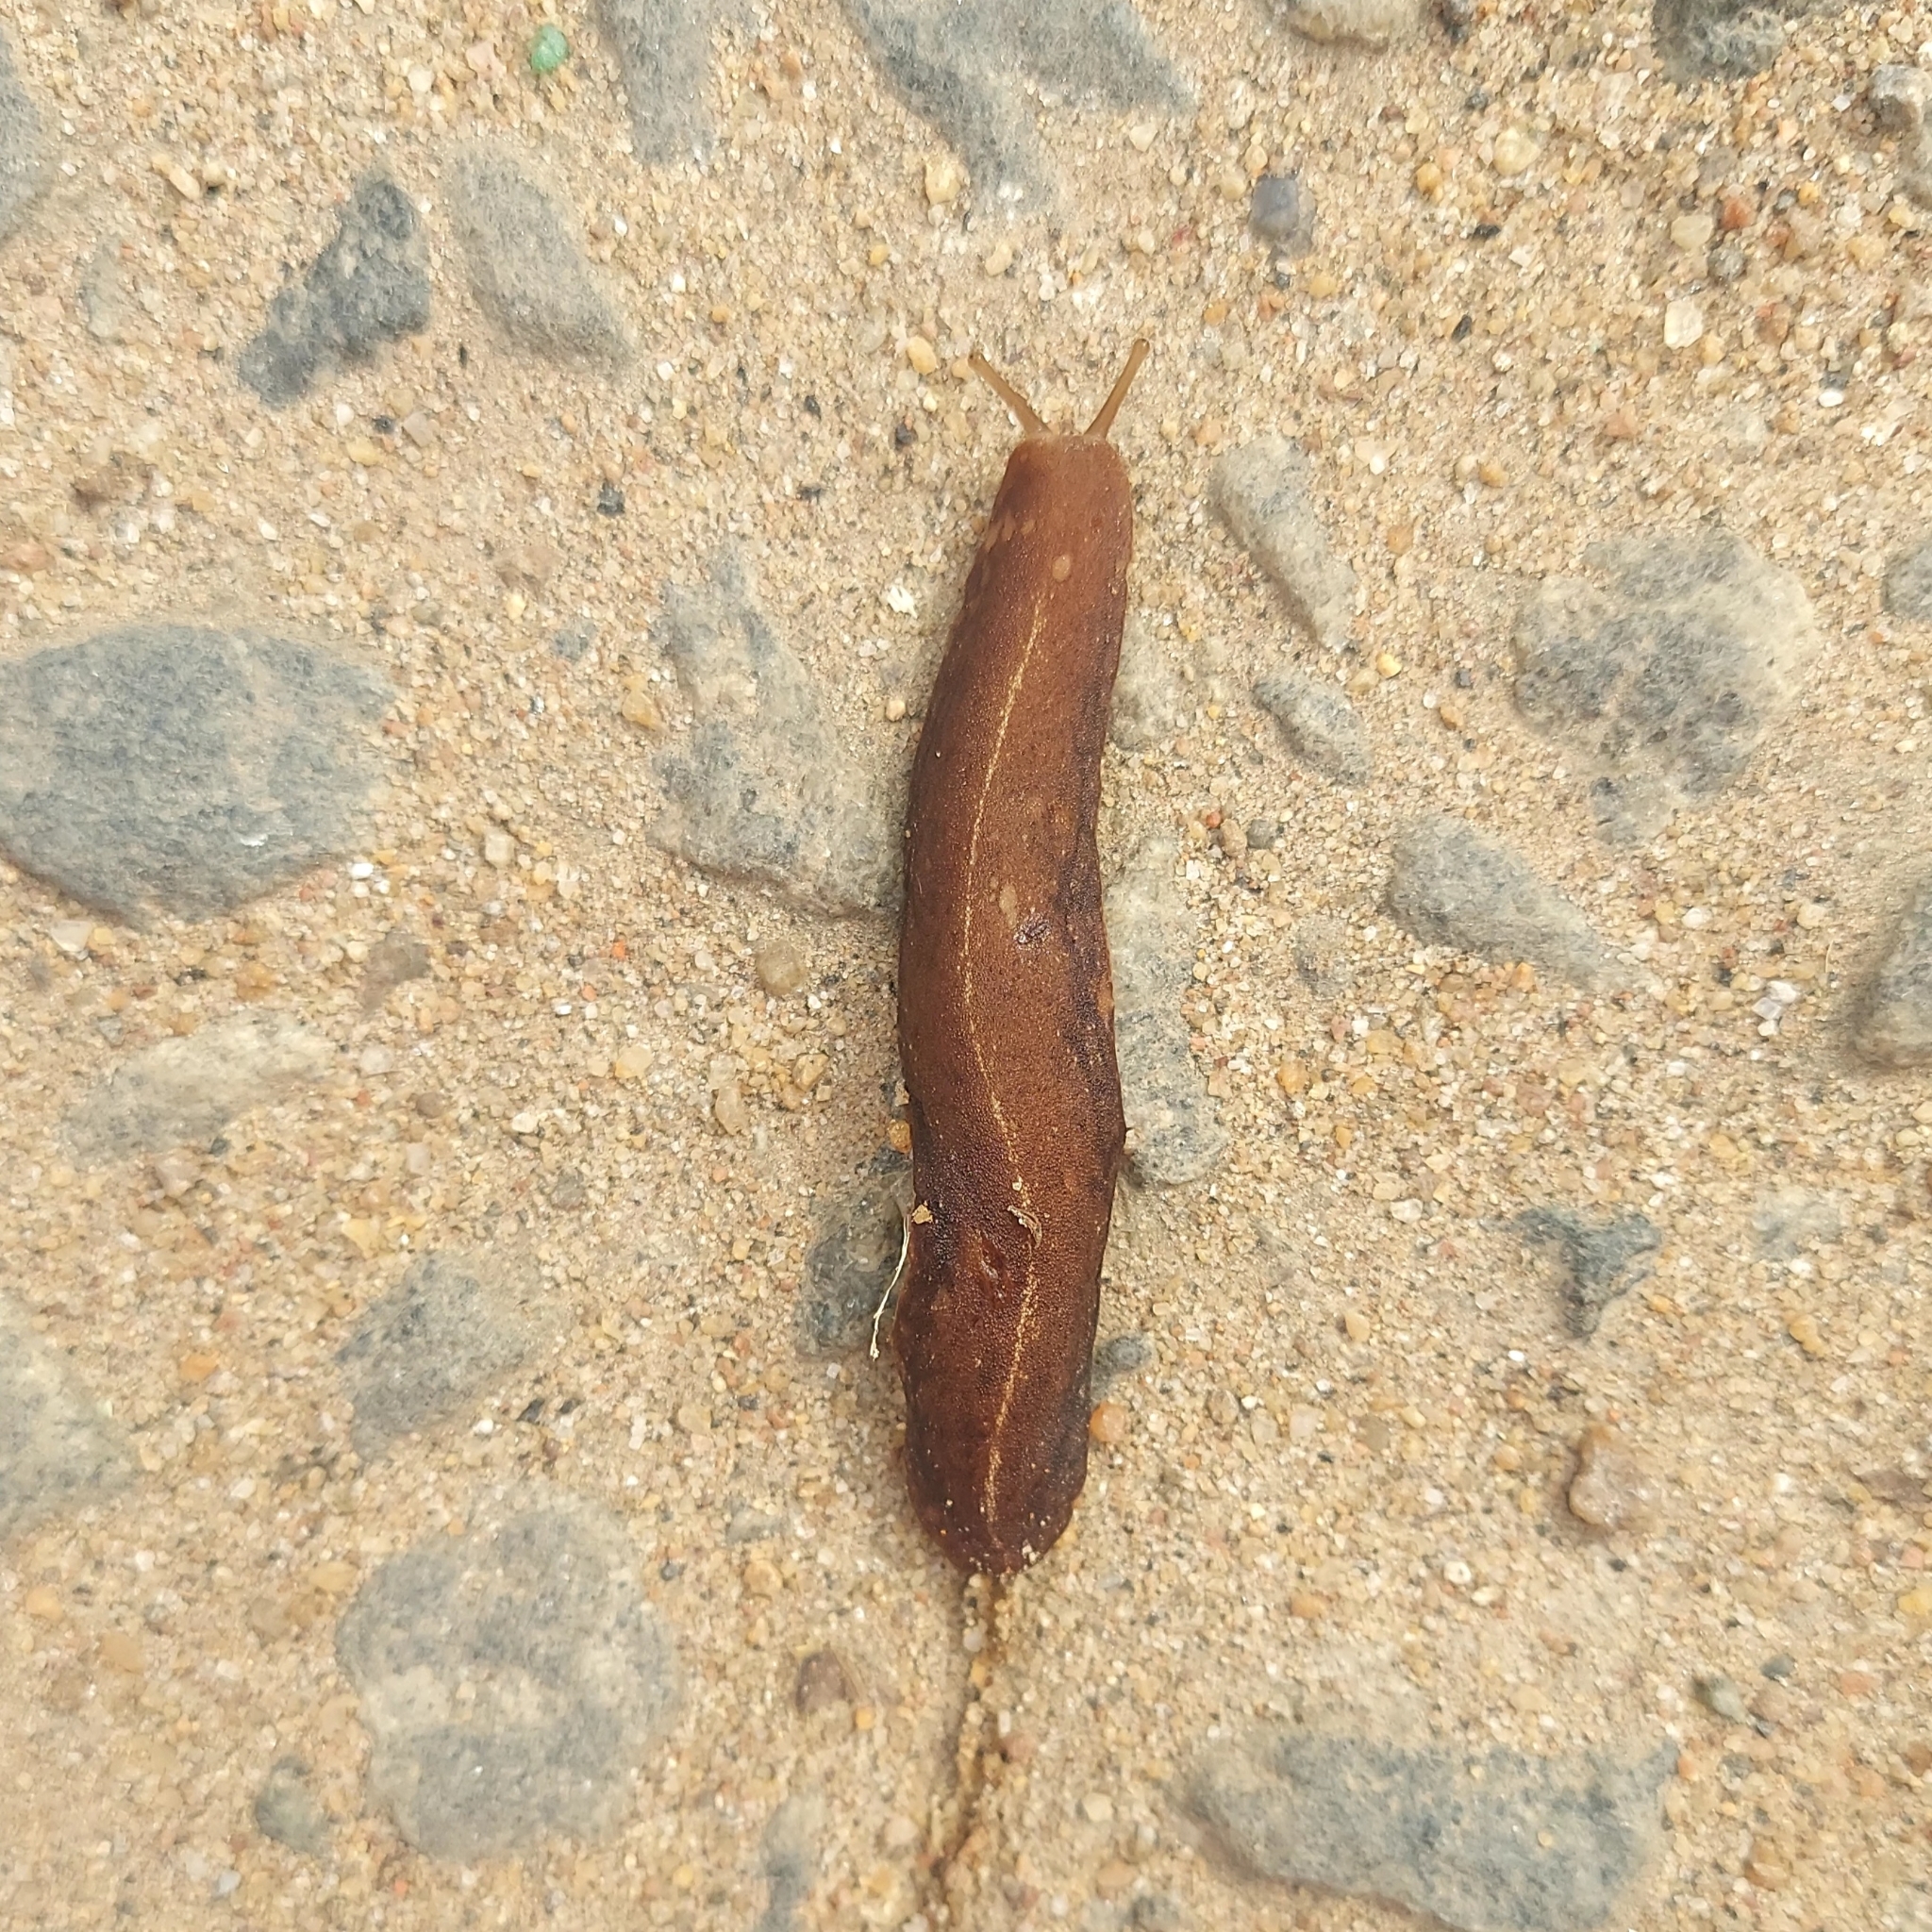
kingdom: Animalia
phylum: Mollusca
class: Gastropoda
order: Systellommatophora
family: Veronicellidae
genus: Laevicaulis
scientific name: Laevicaulis alte
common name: Tropical leatherleaf
